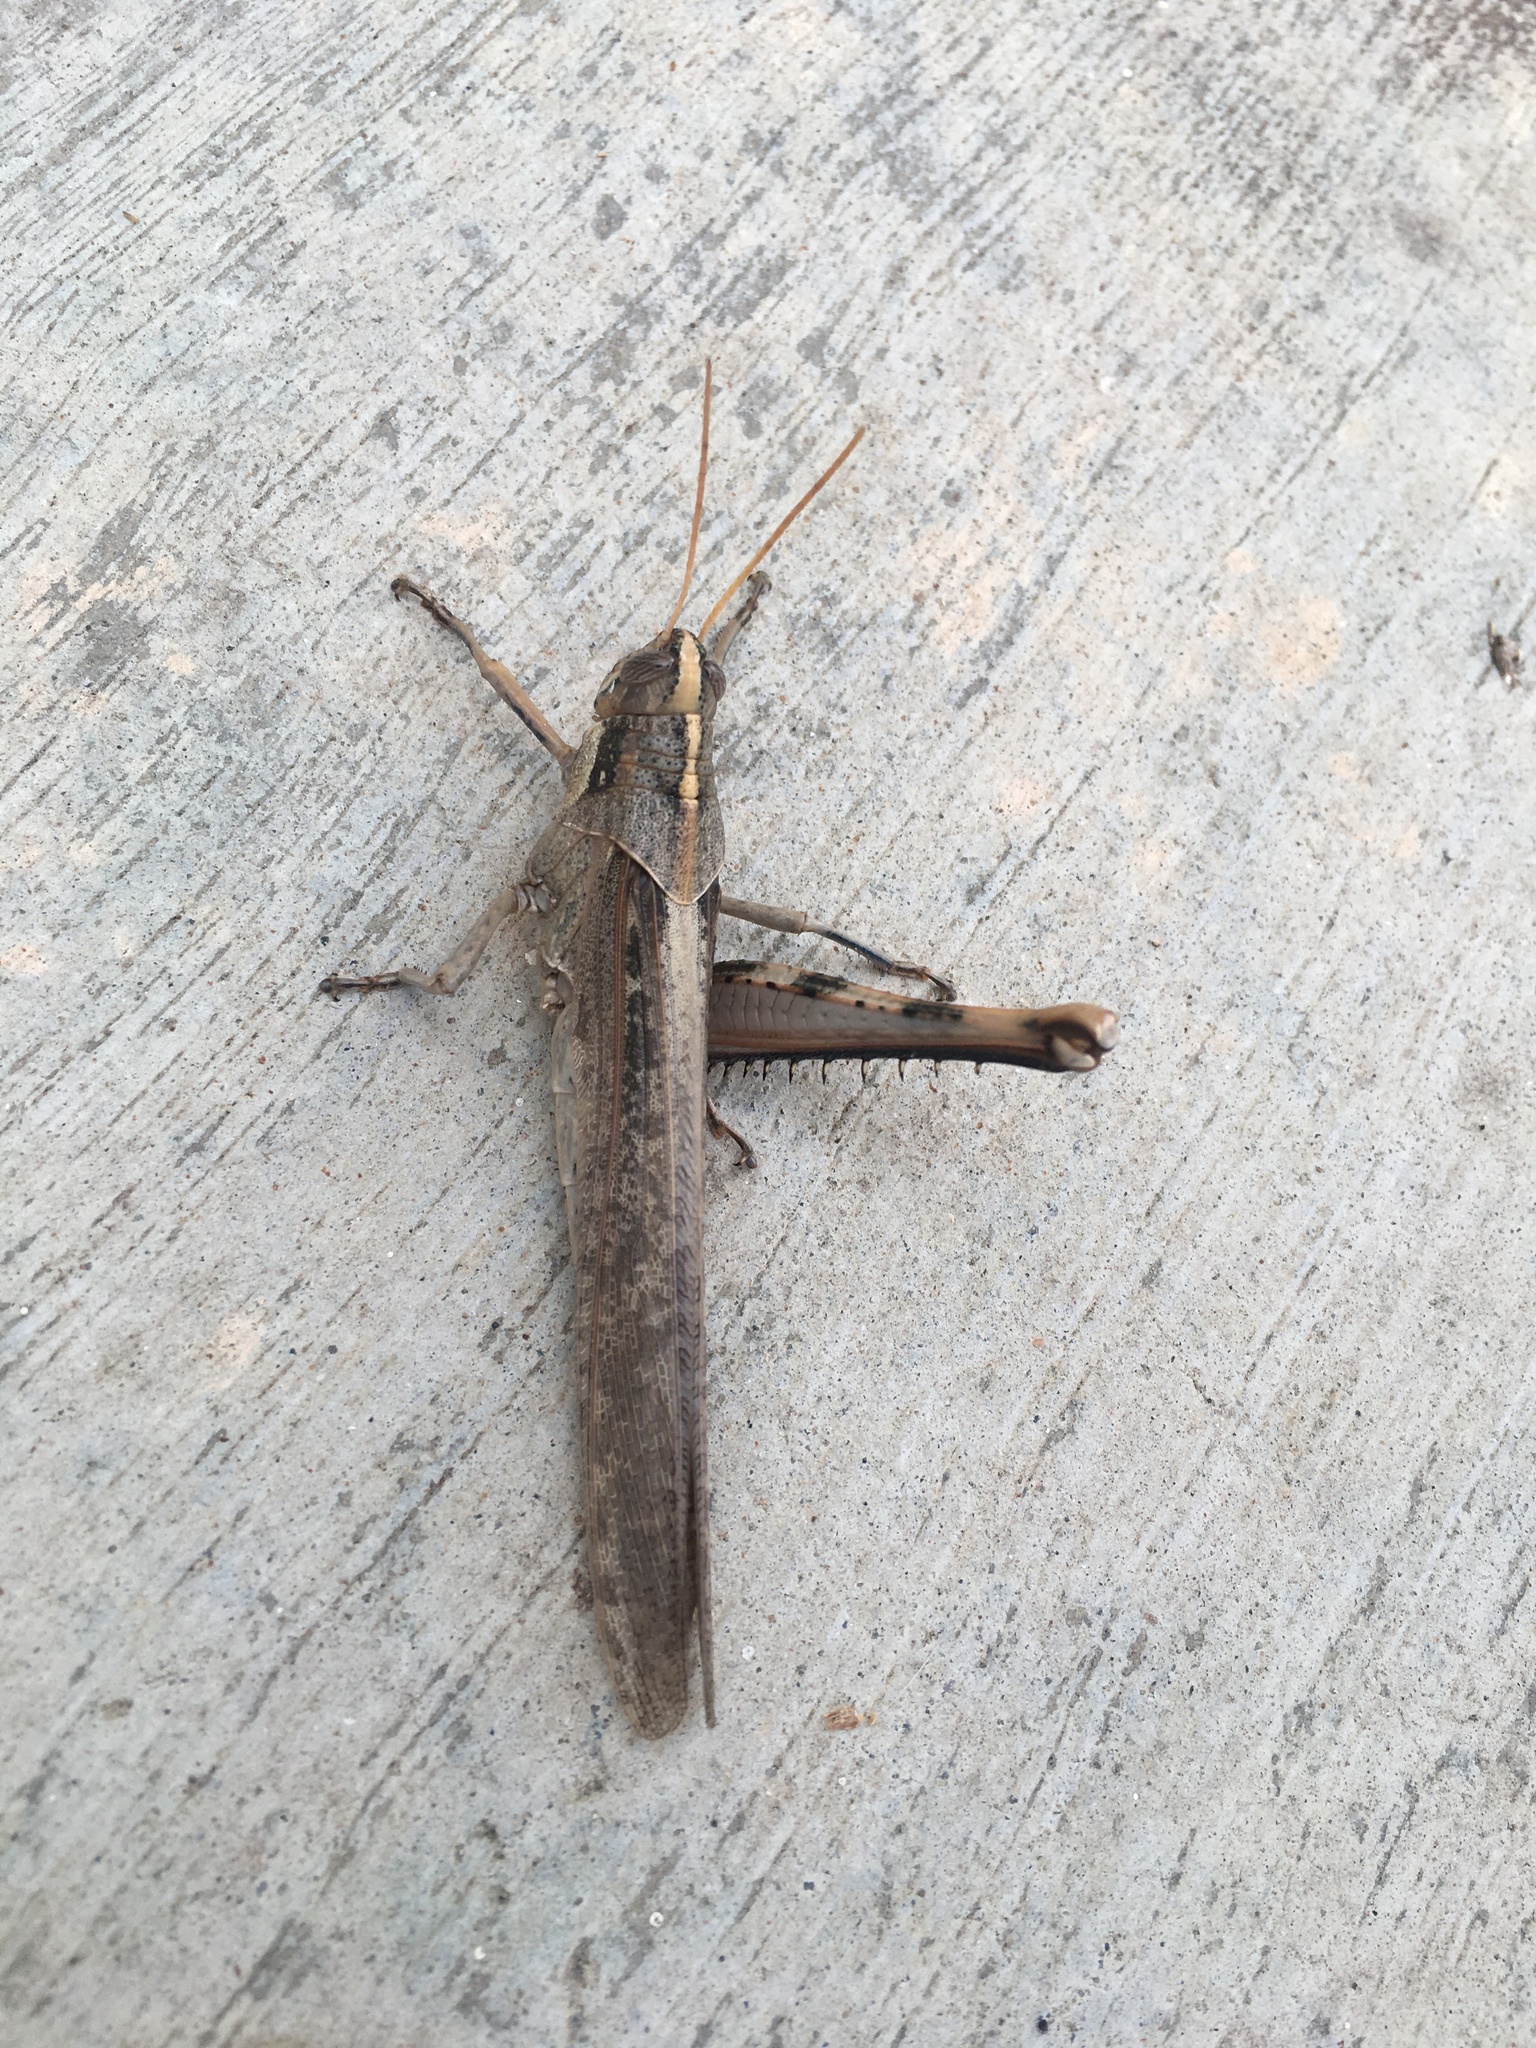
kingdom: Animalia
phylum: Arthropoda
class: Insecta
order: Orthoptera
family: Acrididae
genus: Schistocerca
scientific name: Schistocerca nitens
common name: Vagrant grasshopper
